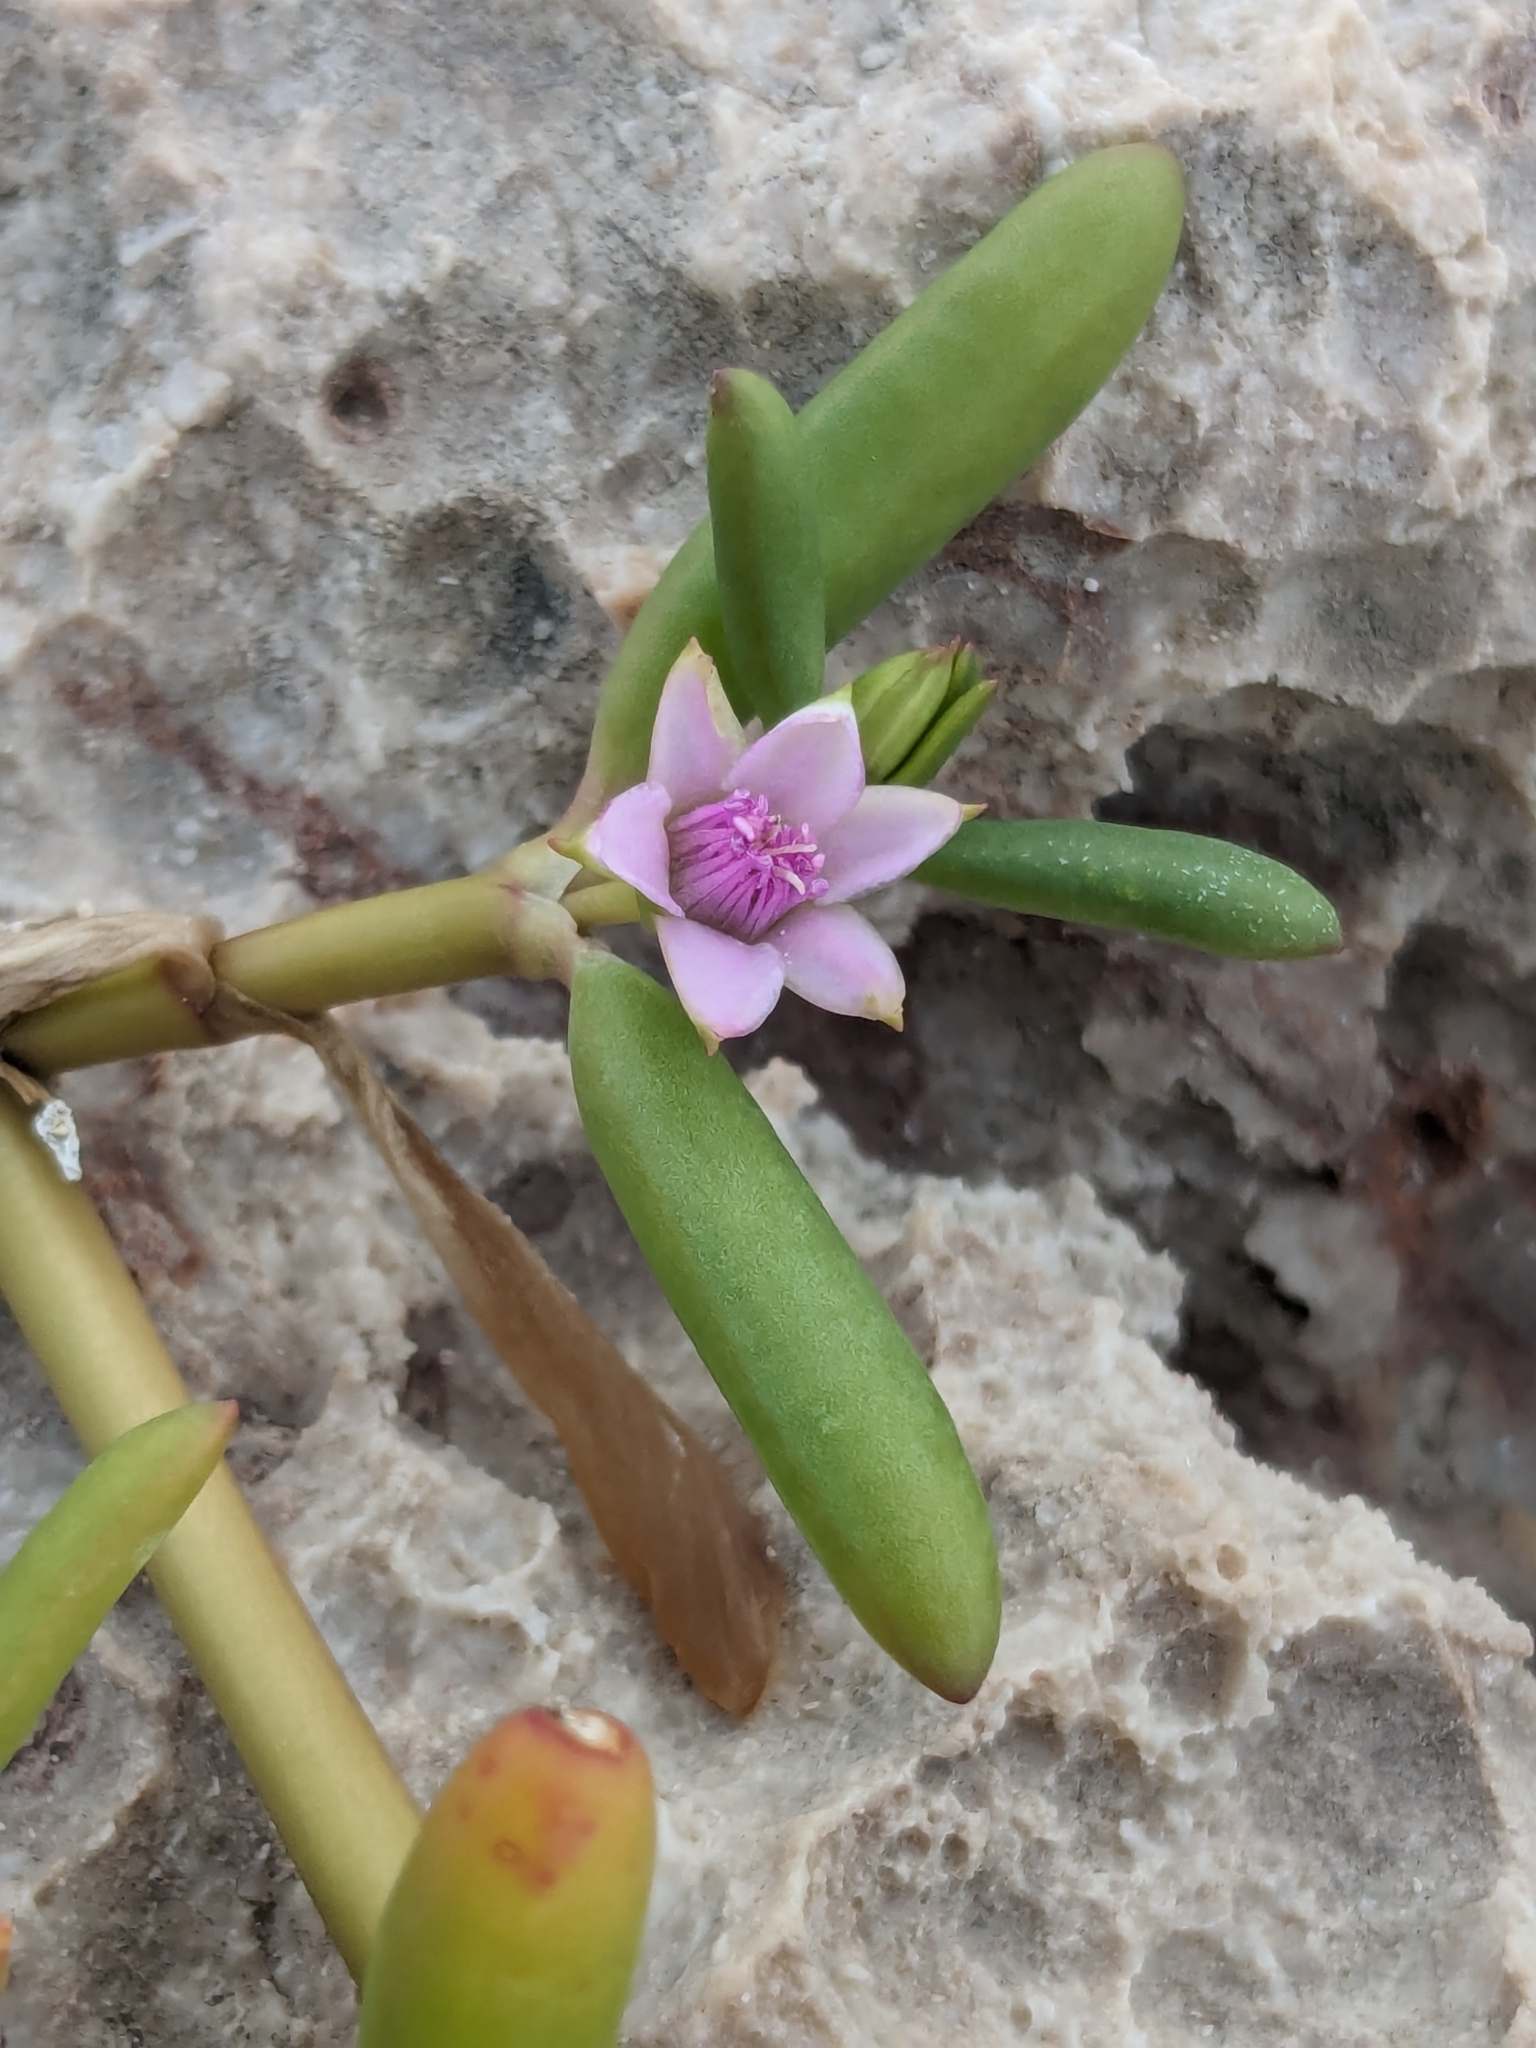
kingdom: Plantae
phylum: Tracheophyta
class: Magnoliopsida
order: Caryophyllales
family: Aizoaceae
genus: Sesuvium
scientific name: Sesuvium portulacastrum
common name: Sea-purslane
